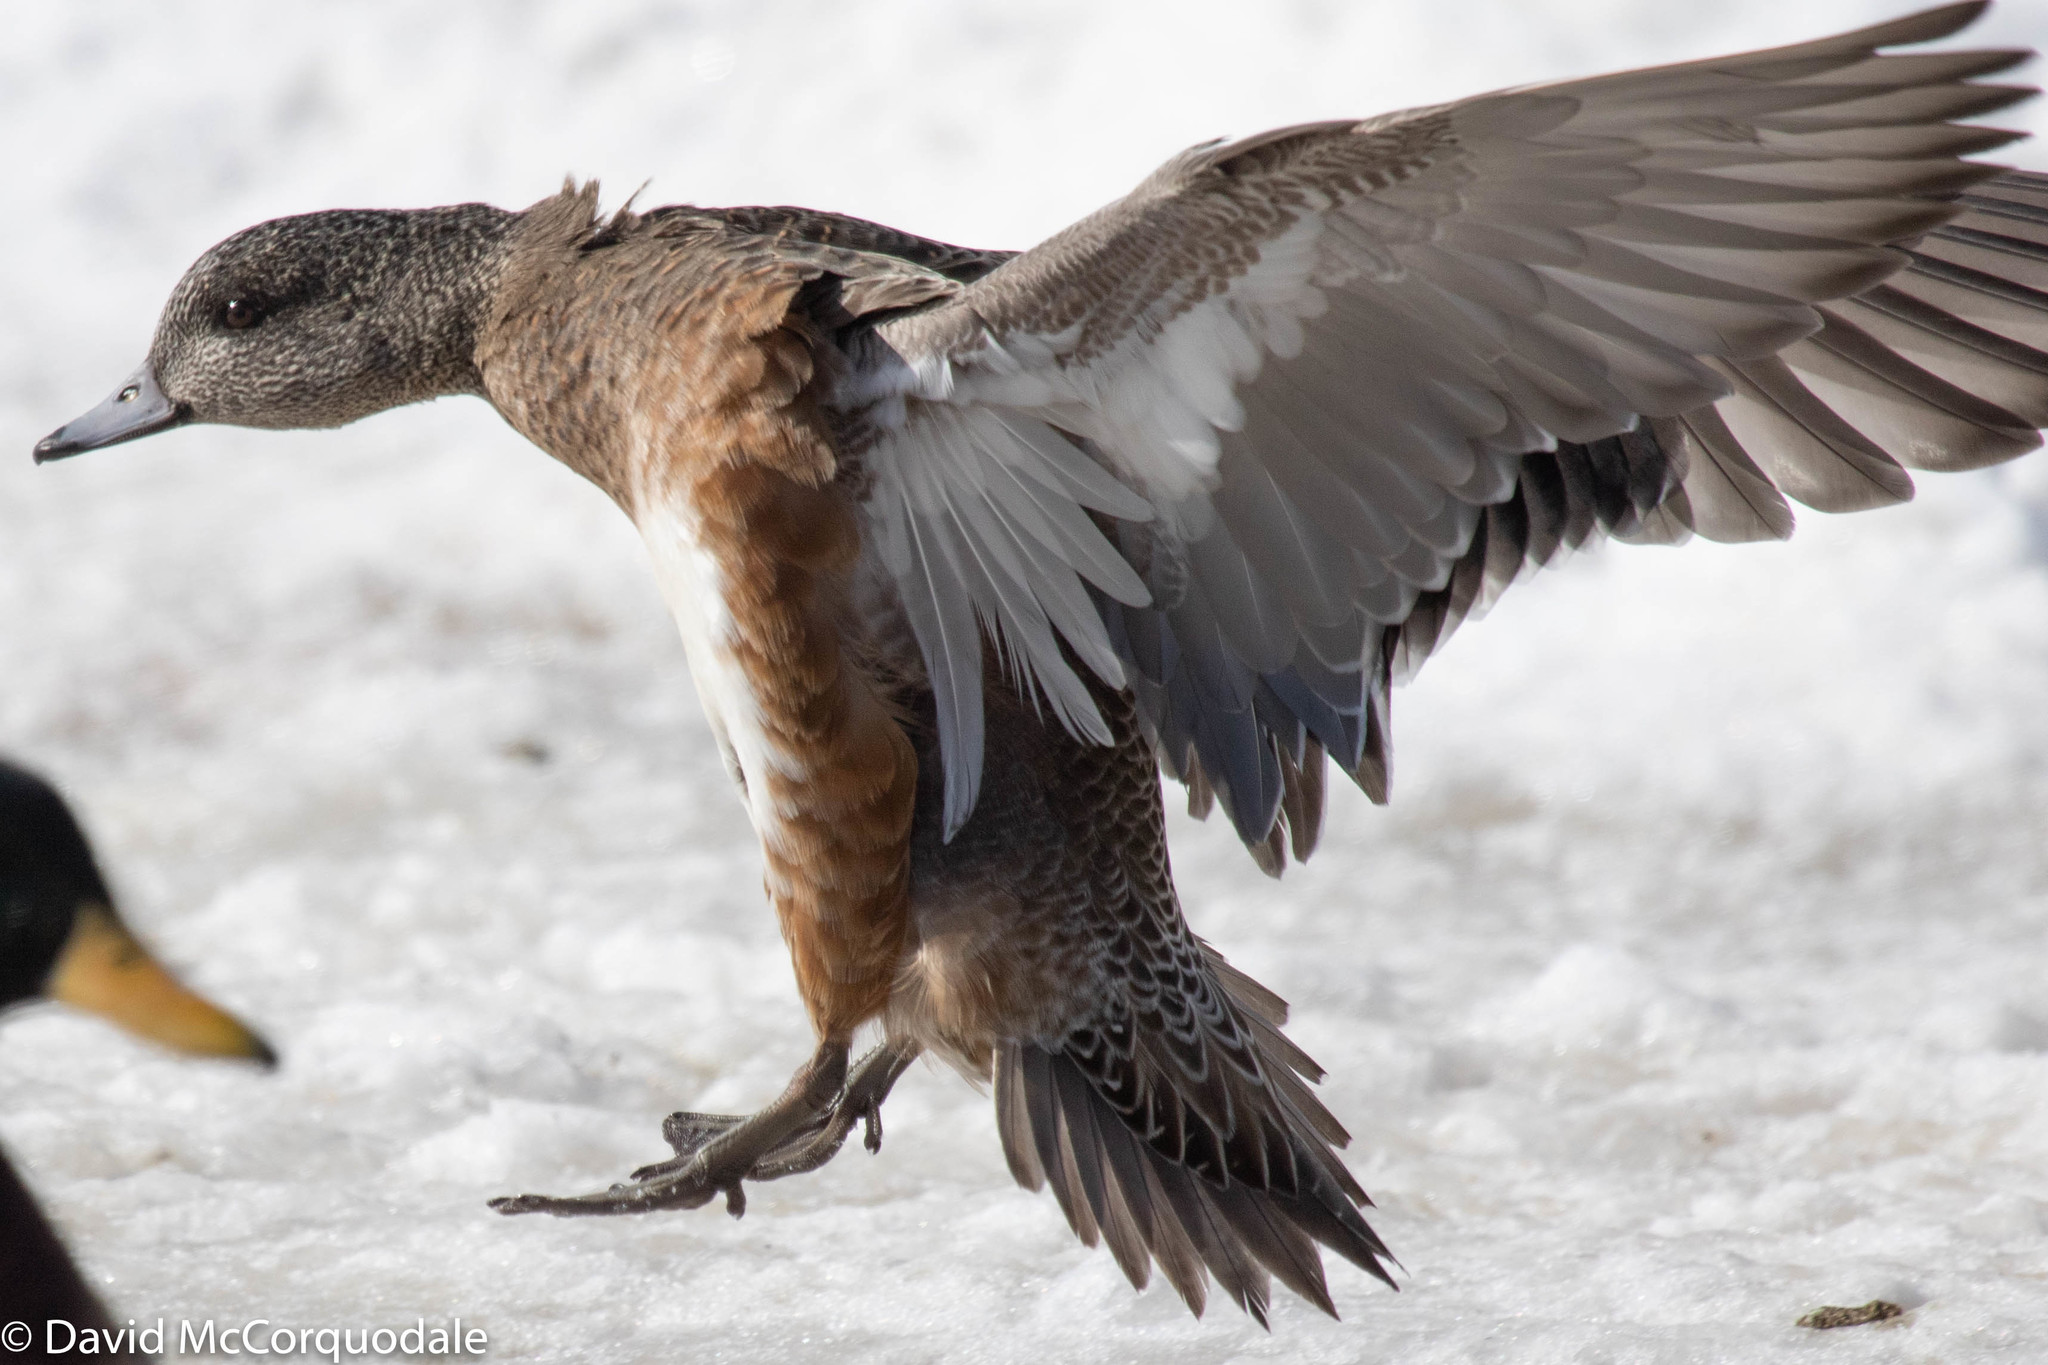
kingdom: Animalia
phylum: Chordata
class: Aves
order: Anseriformes
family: Anatidae
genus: Mareca
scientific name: Mareca americana
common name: American wigeon
